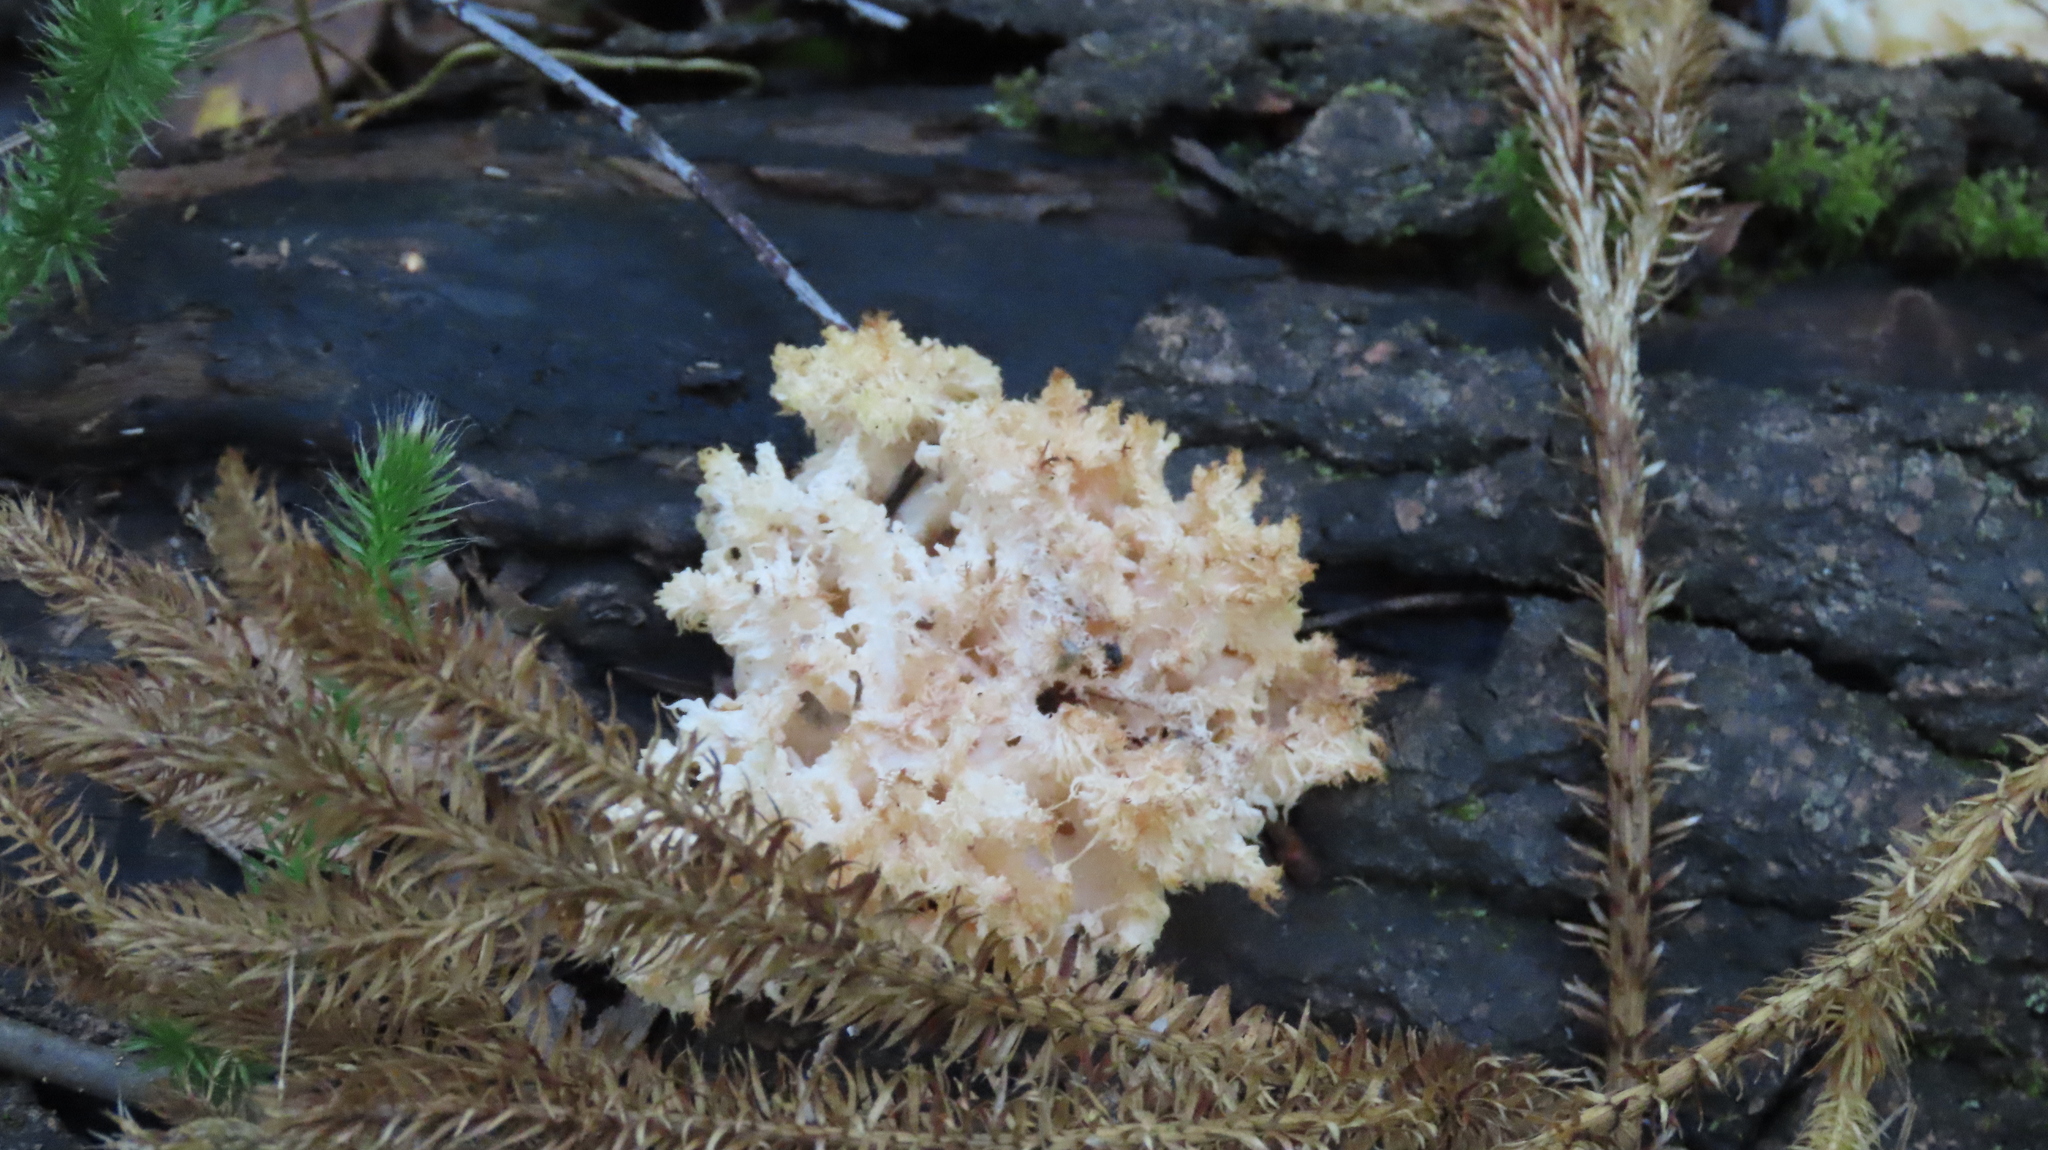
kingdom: Fungi
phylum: Basidiomycota
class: Agaricomycetes
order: Russulales
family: Hericiaceae
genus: Hericium
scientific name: Hericium coralloides
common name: Coral tooth
